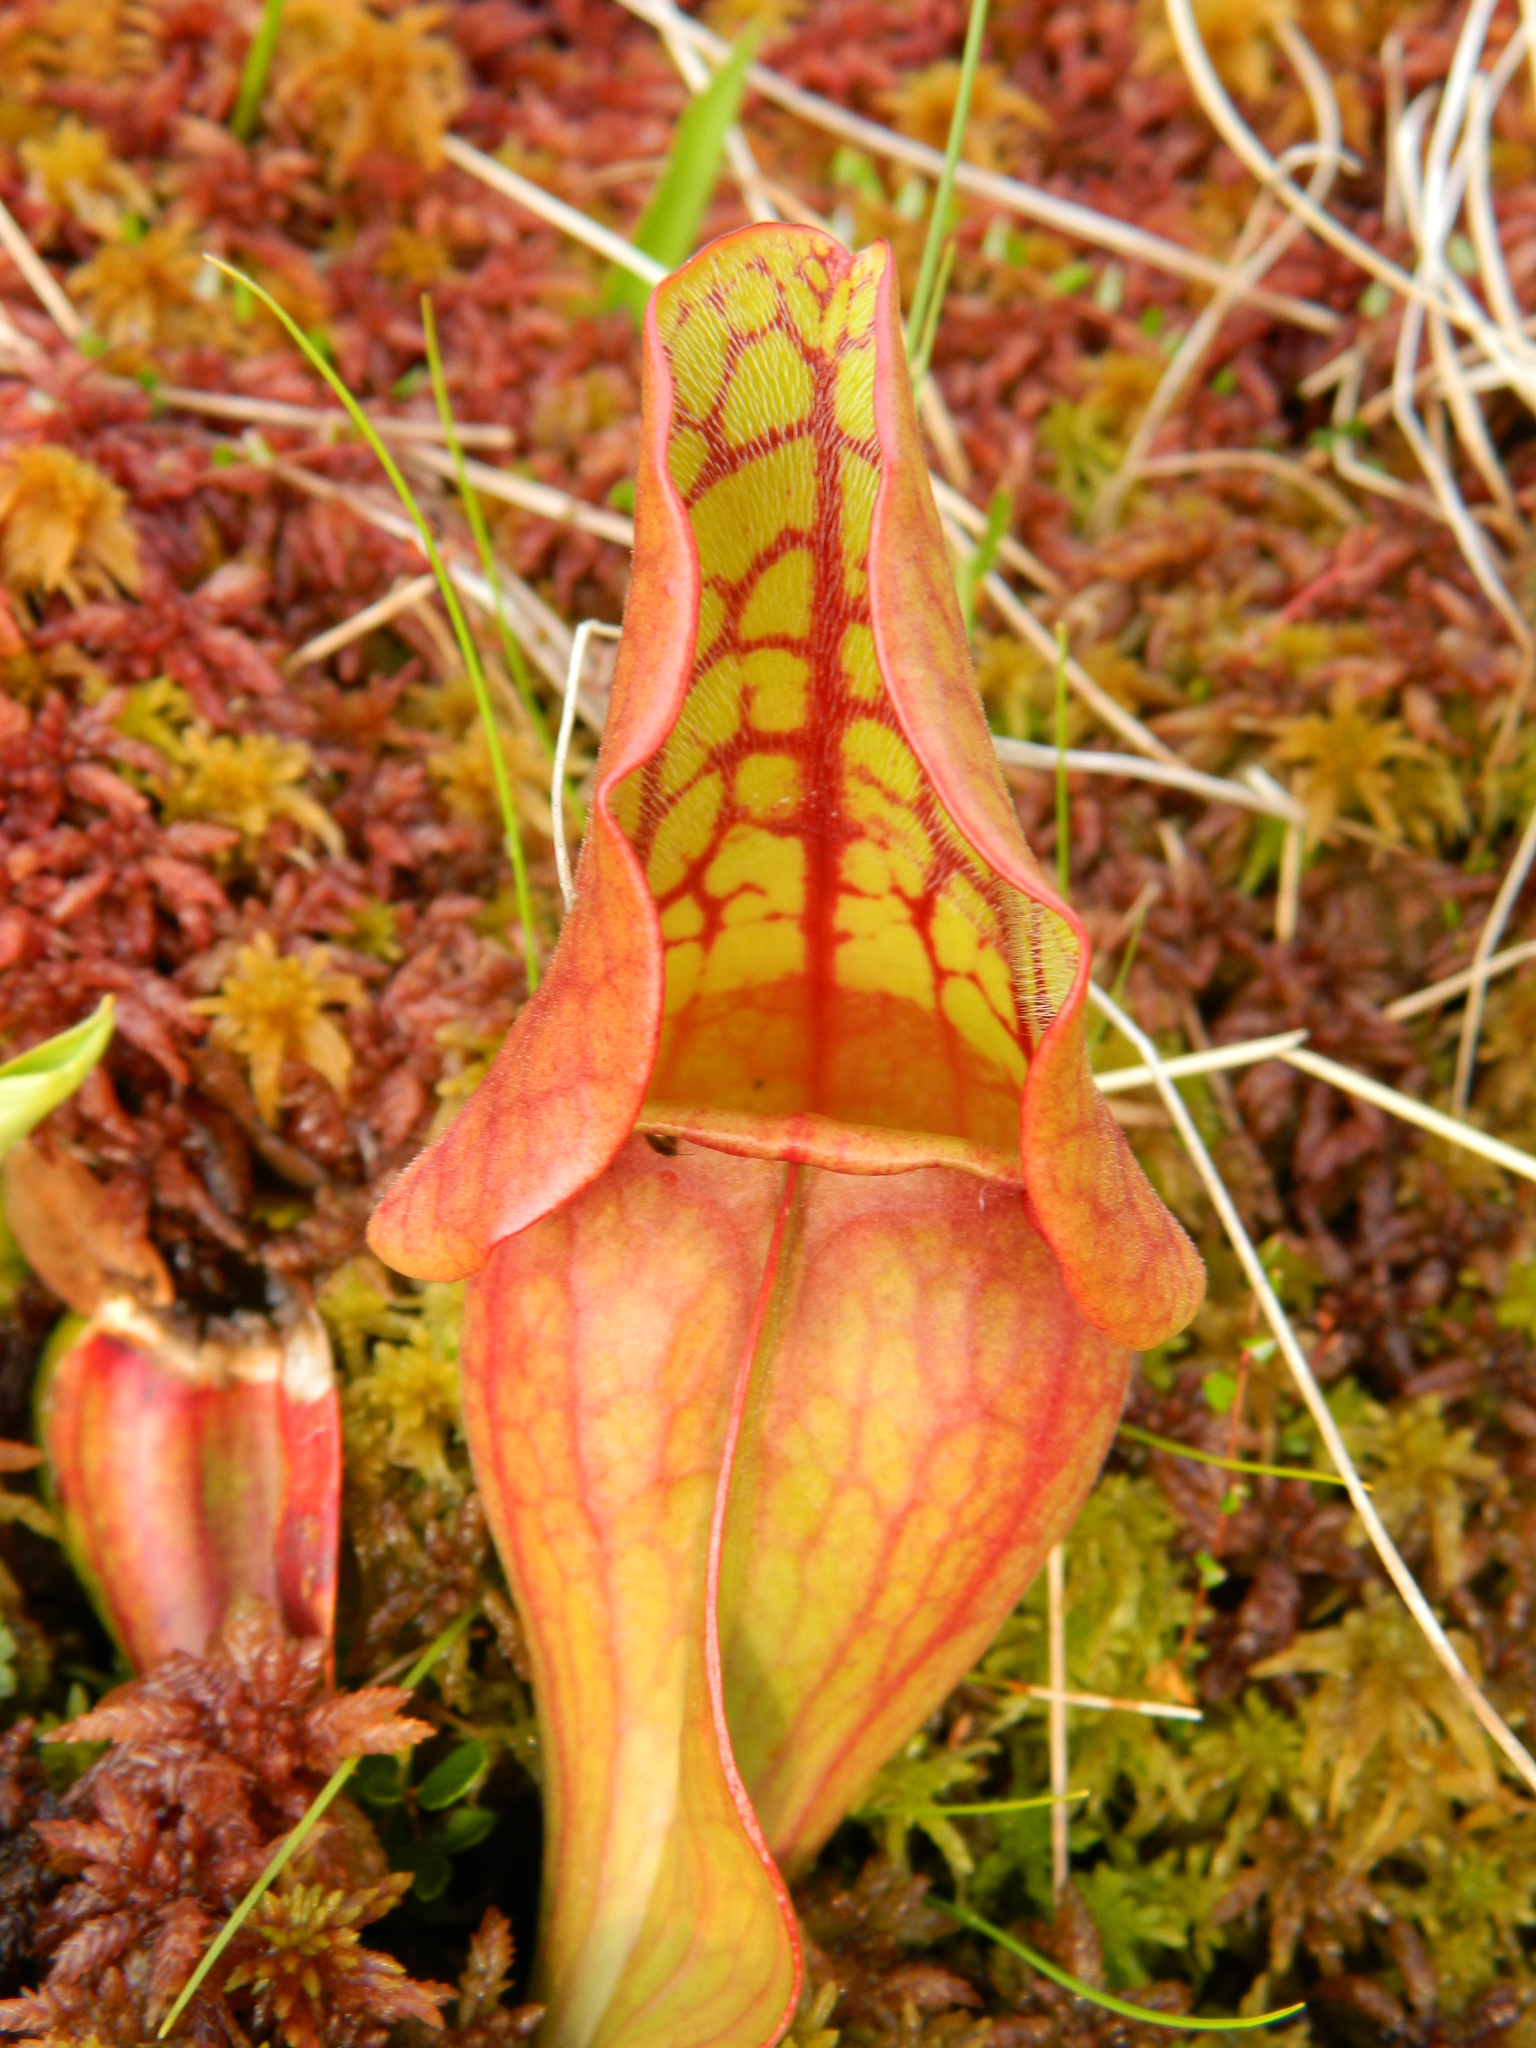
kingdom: Plantae
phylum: Tracheophyta
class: Magnoliopsida
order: Ericales
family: Sarraceniaceae
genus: Sarracenia
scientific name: Sarracenia purpurea
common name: Pitcherplant
